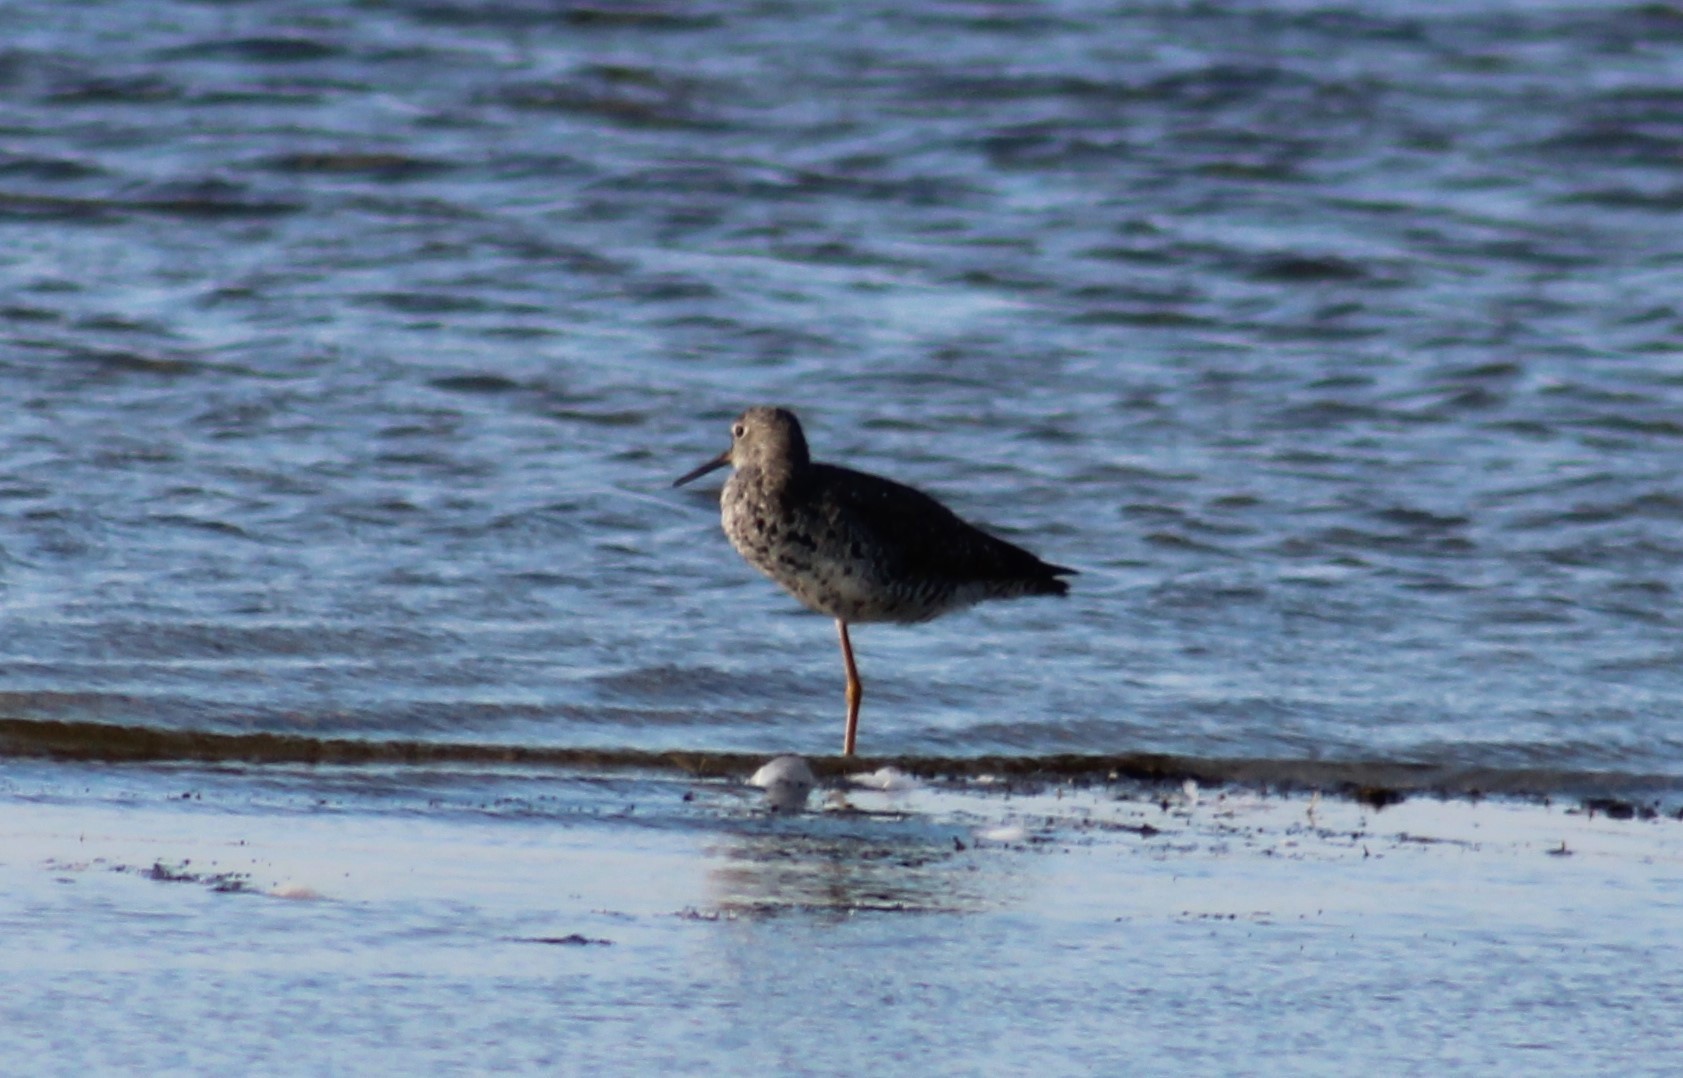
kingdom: Animalia
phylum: Chordata
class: Aves
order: Charadriiformes
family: Scolopacidae
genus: Tringa
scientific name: Tringa melanoleuca
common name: Greater yellowlegs
